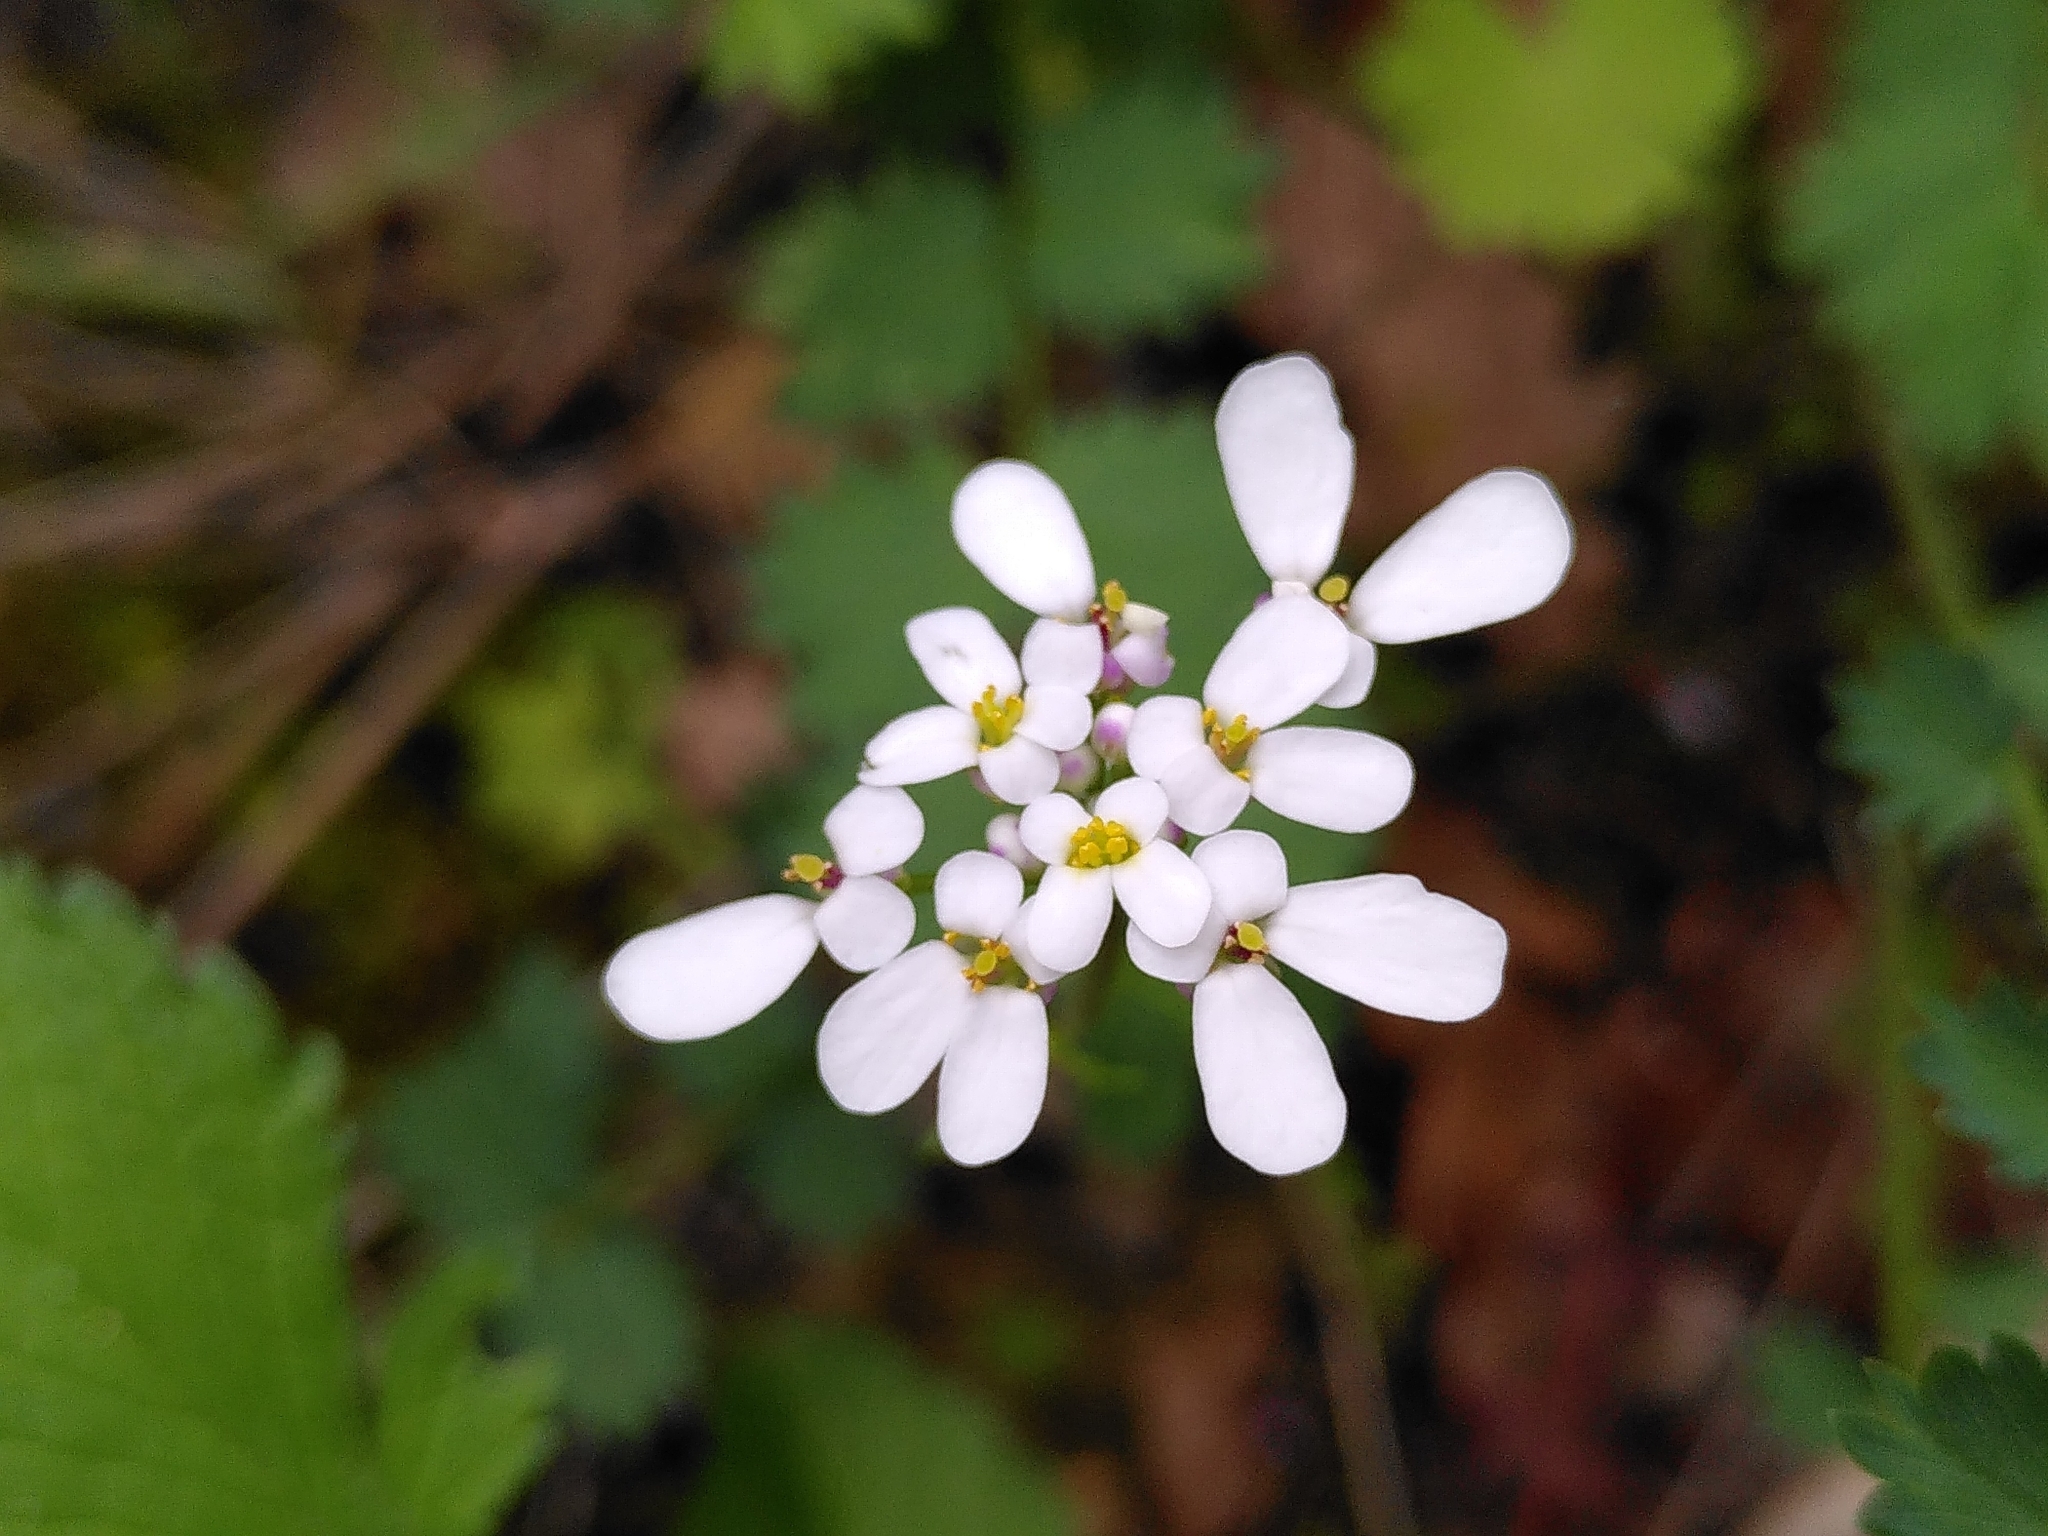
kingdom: Plantae
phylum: Tracheophyta
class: Magnoliopsida
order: Brassicales
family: Brassicaceae
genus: Iberis
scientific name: Iberis pinnata
